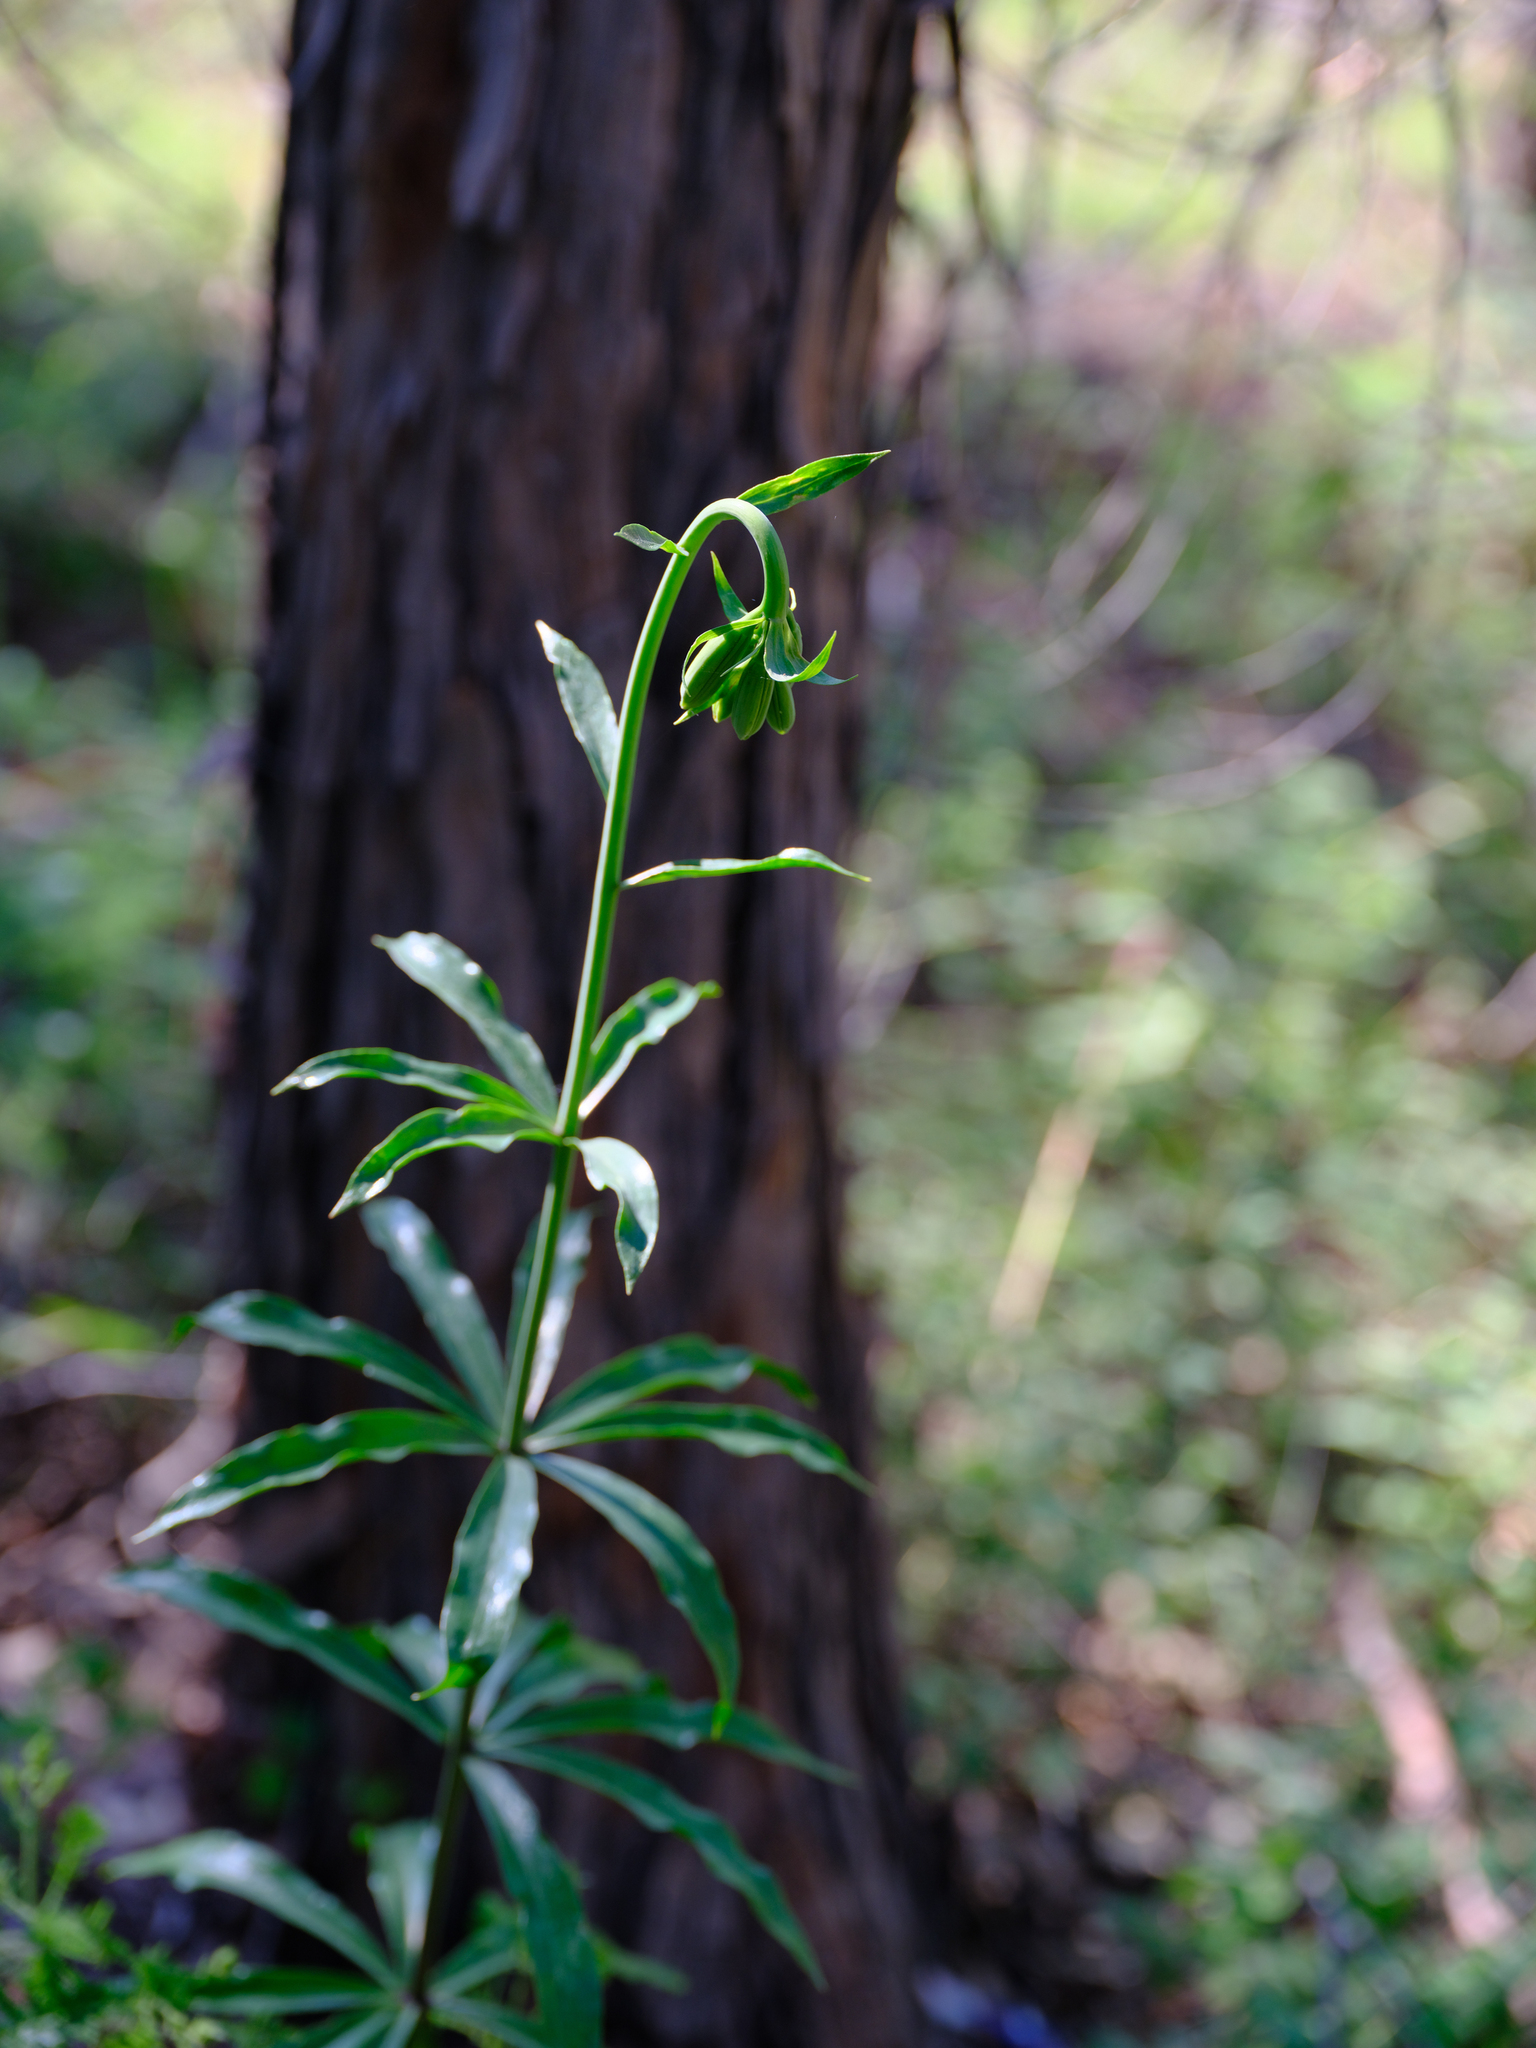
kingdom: Plantae
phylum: Tracheophyta
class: Liliopsida
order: Liliales
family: Liliaceae
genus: Lilium
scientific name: Lilium washingtonianum
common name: Washington lily
